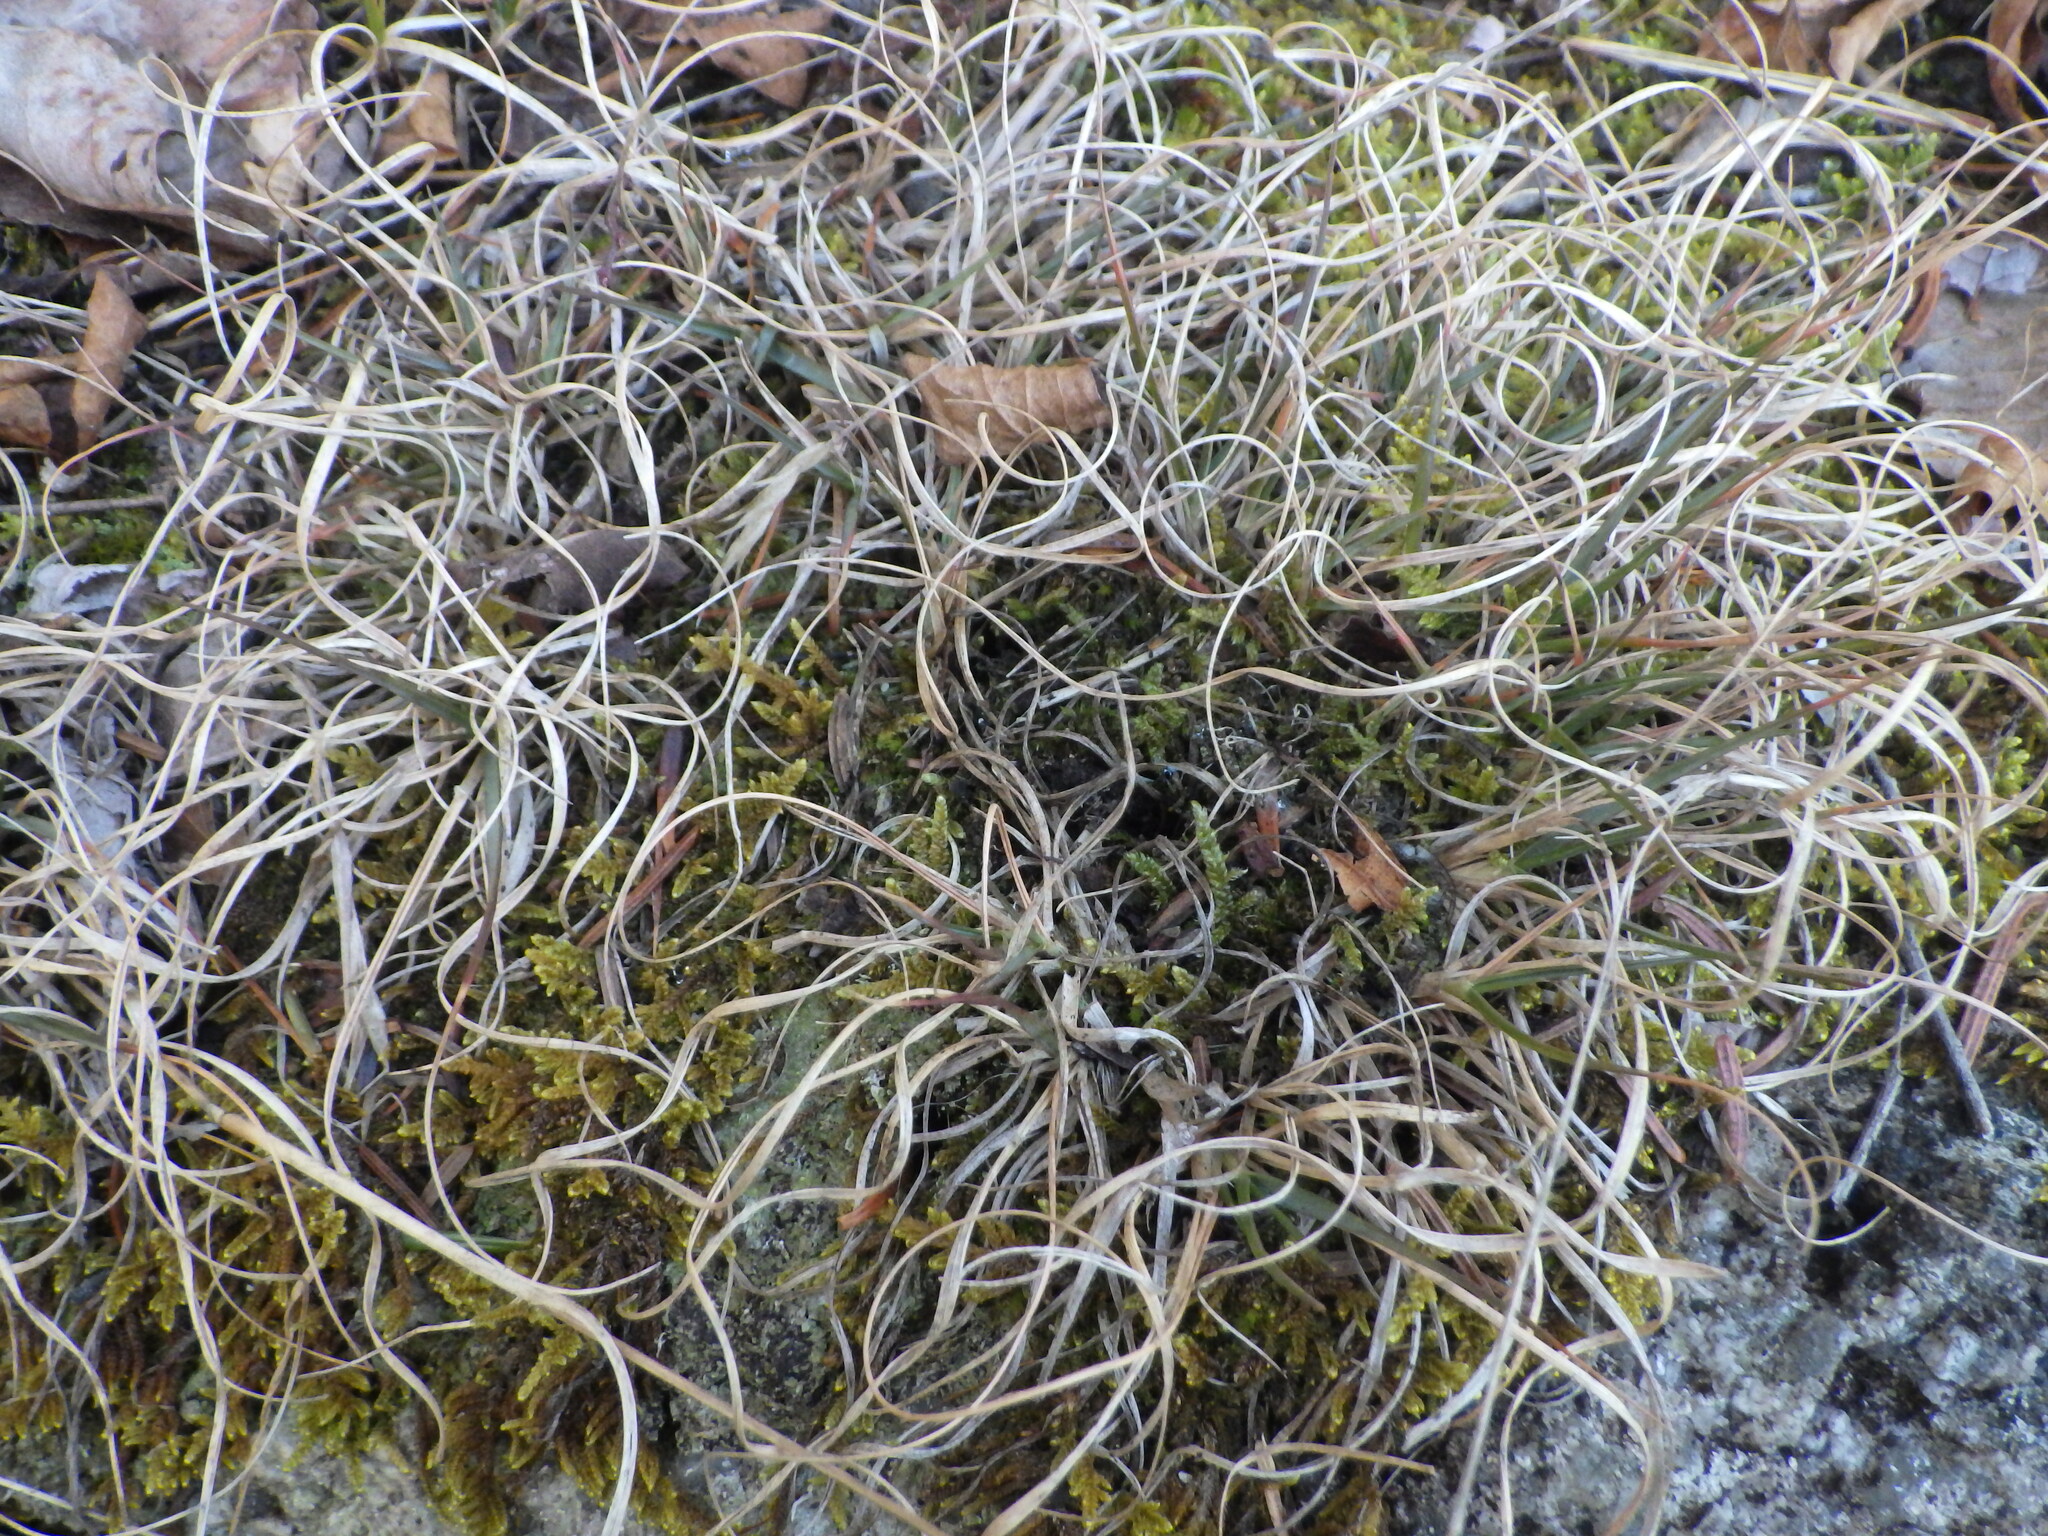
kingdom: Plantae
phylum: Tracheophyta
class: Liliopsida
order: Poales
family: Poaceae
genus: Danthonia
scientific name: Danthonia spicata
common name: Common wild oatgrass
